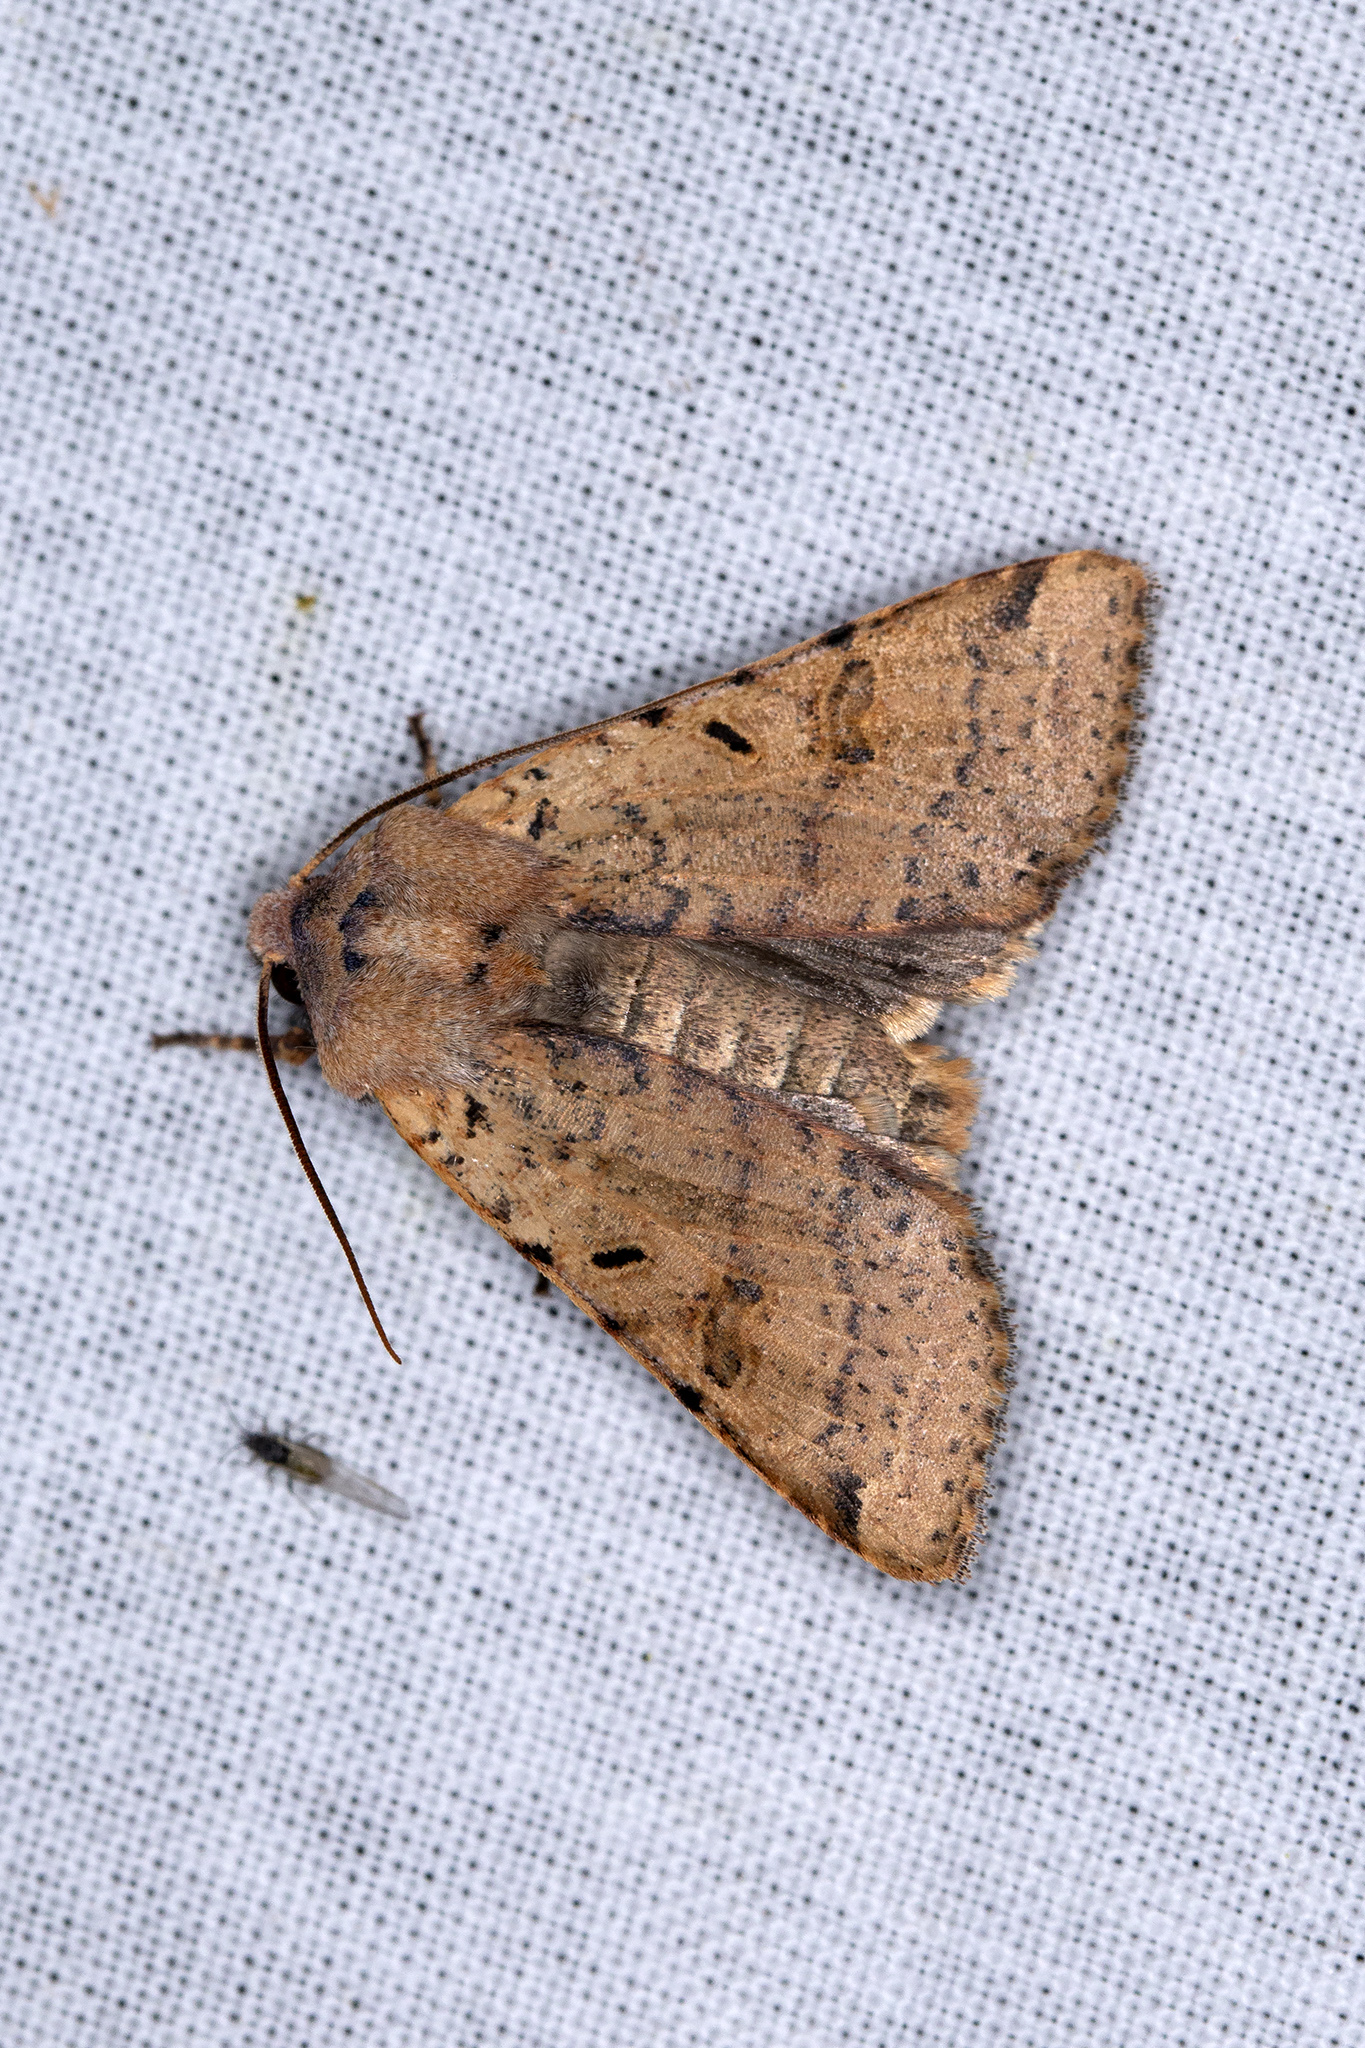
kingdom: Animalia
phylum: Arthropoda
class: Insecta
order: Lepidoptera
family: Noctuidae
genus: Agrochola
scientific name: Agrochola lychnidis
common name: Beaded chestnut
